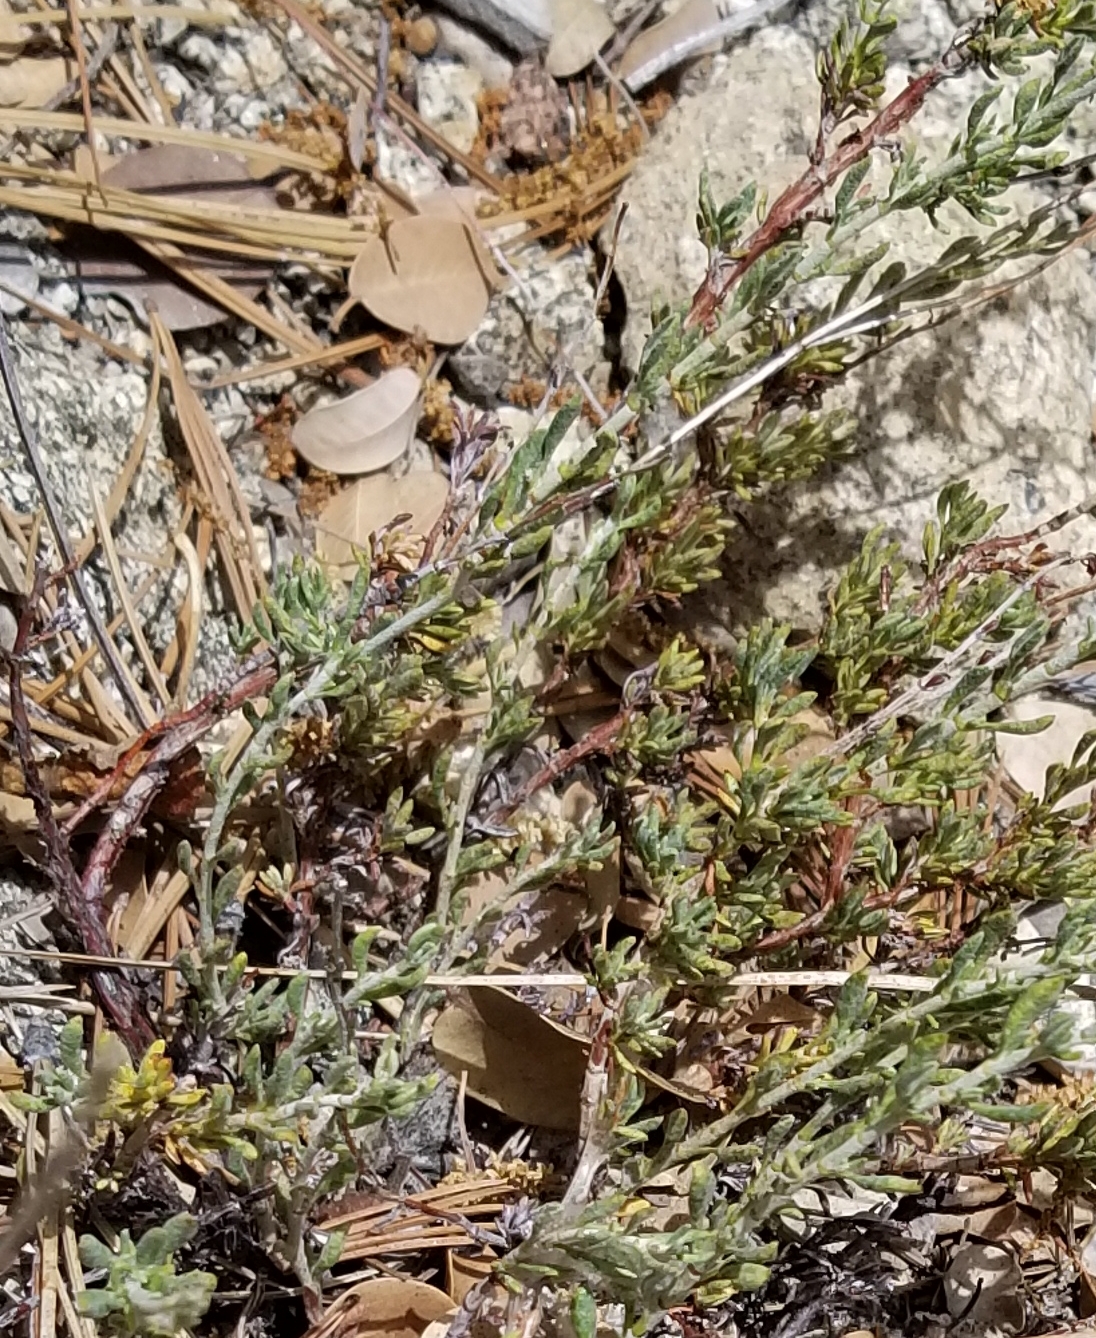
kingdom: Plantae
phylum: Tracheophyta
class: Magnoliopsida
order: Caryophyllales
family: Polygonaceae
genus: Eriogonum
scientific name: Eriogonum wrightii
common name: Bastard-sage
